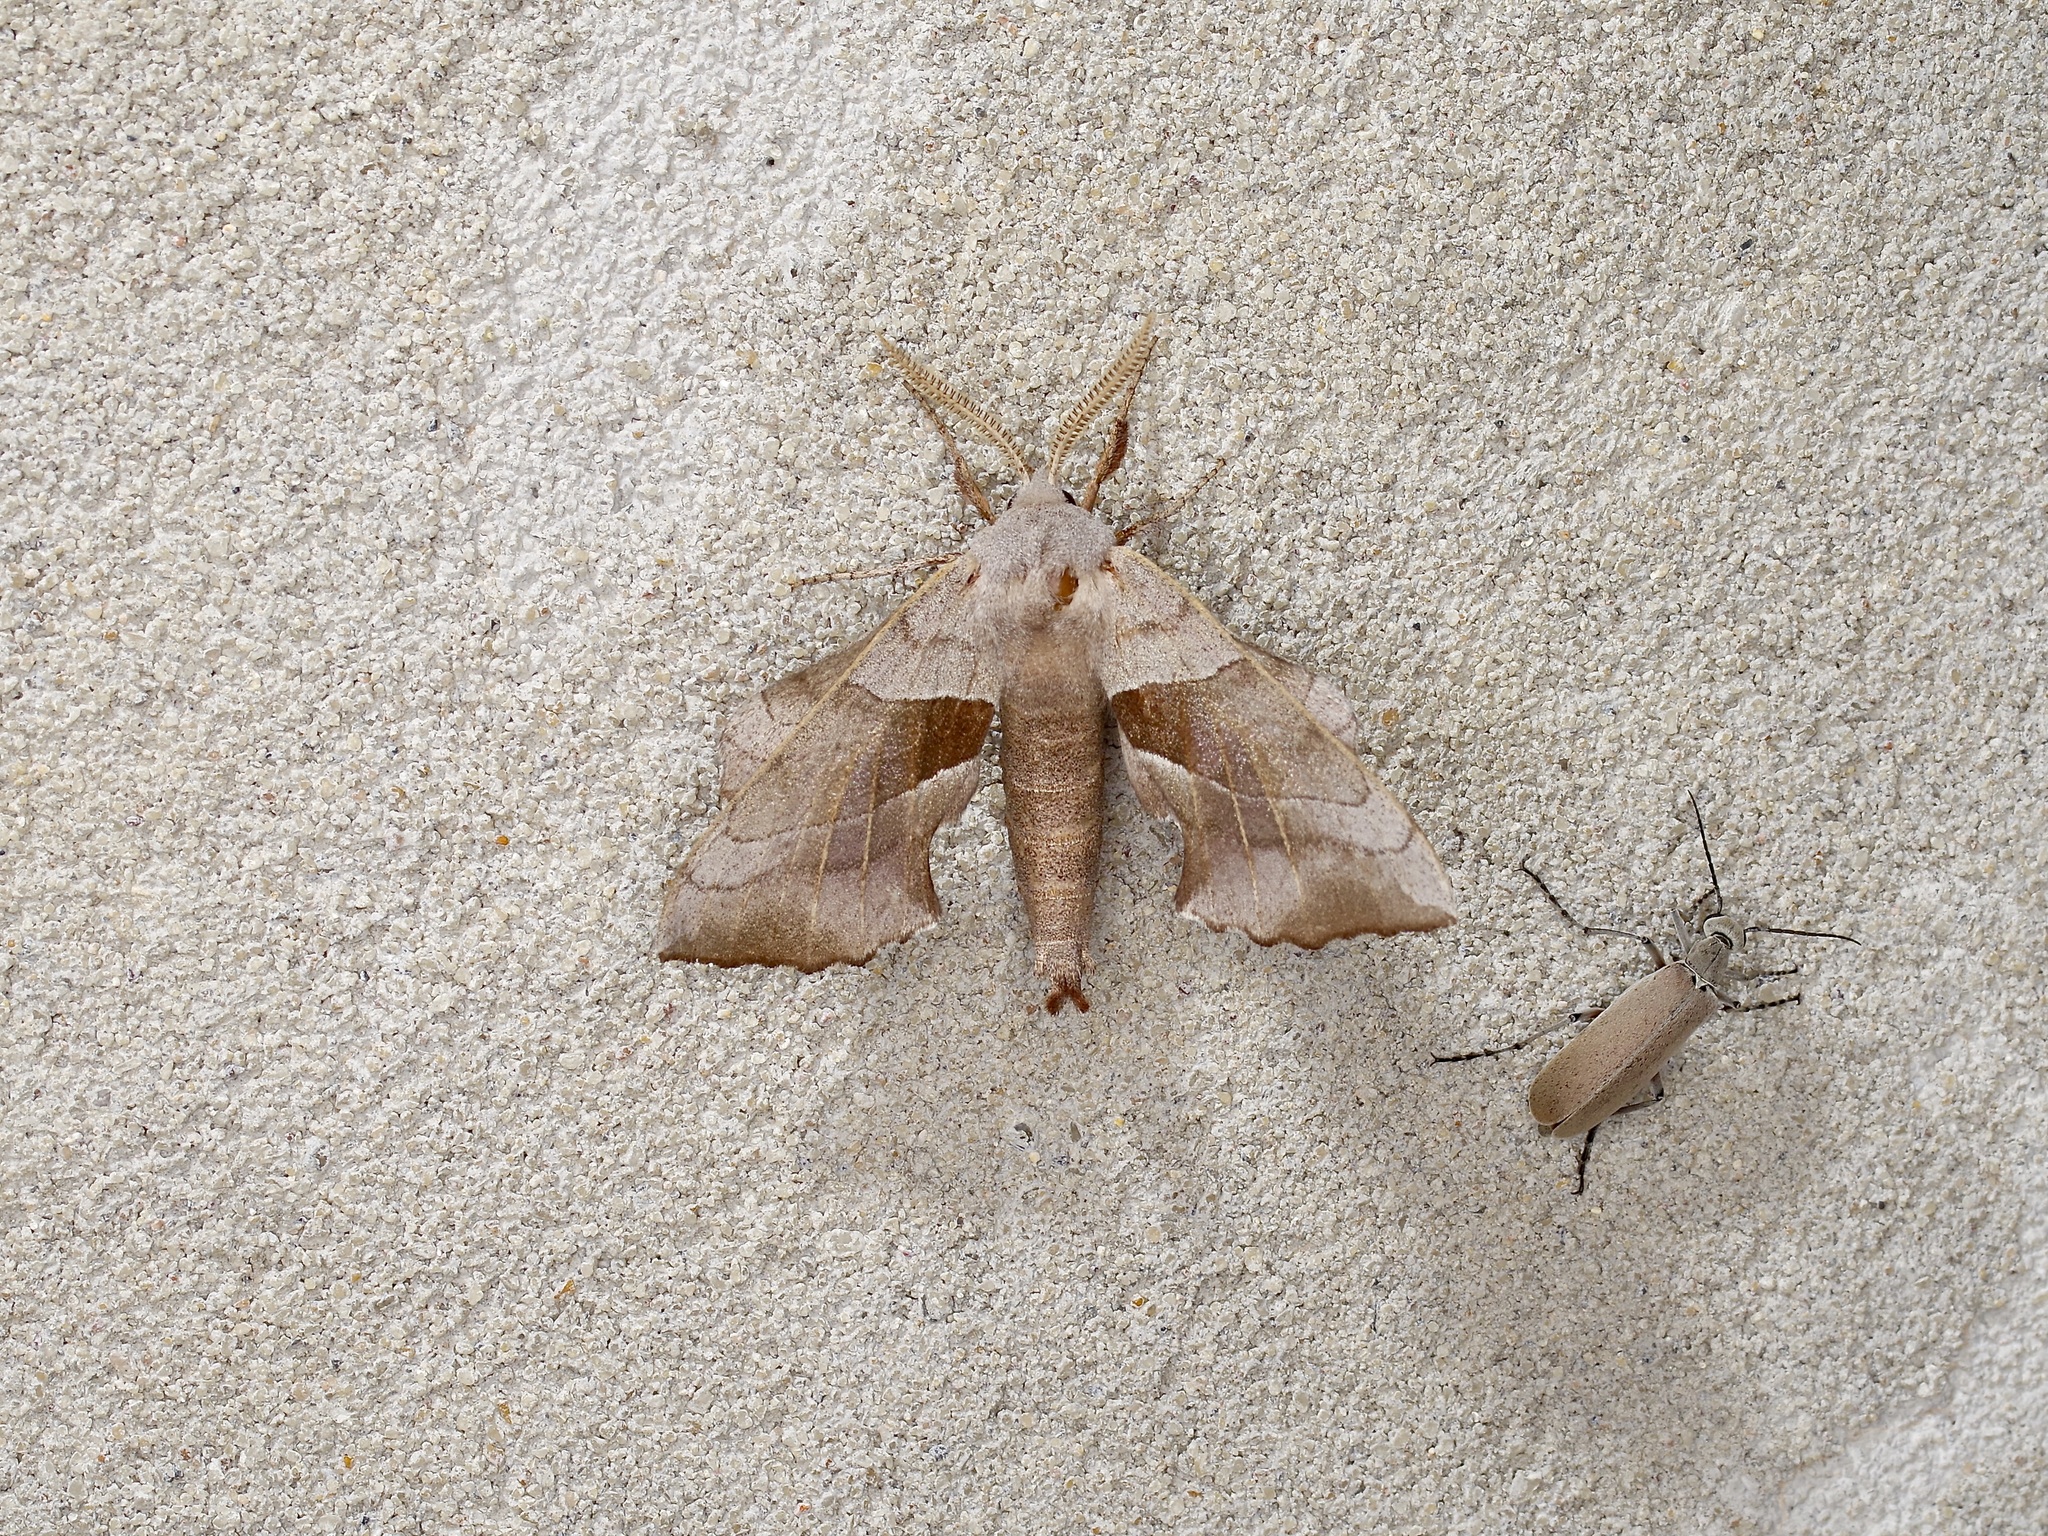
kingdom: Animalia
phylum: Arthropoda
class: Insecta
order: Lepidoptera
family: Sphingidae
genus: Amorpha
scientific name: Amorpha juglandis
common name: Walnut sphinx
